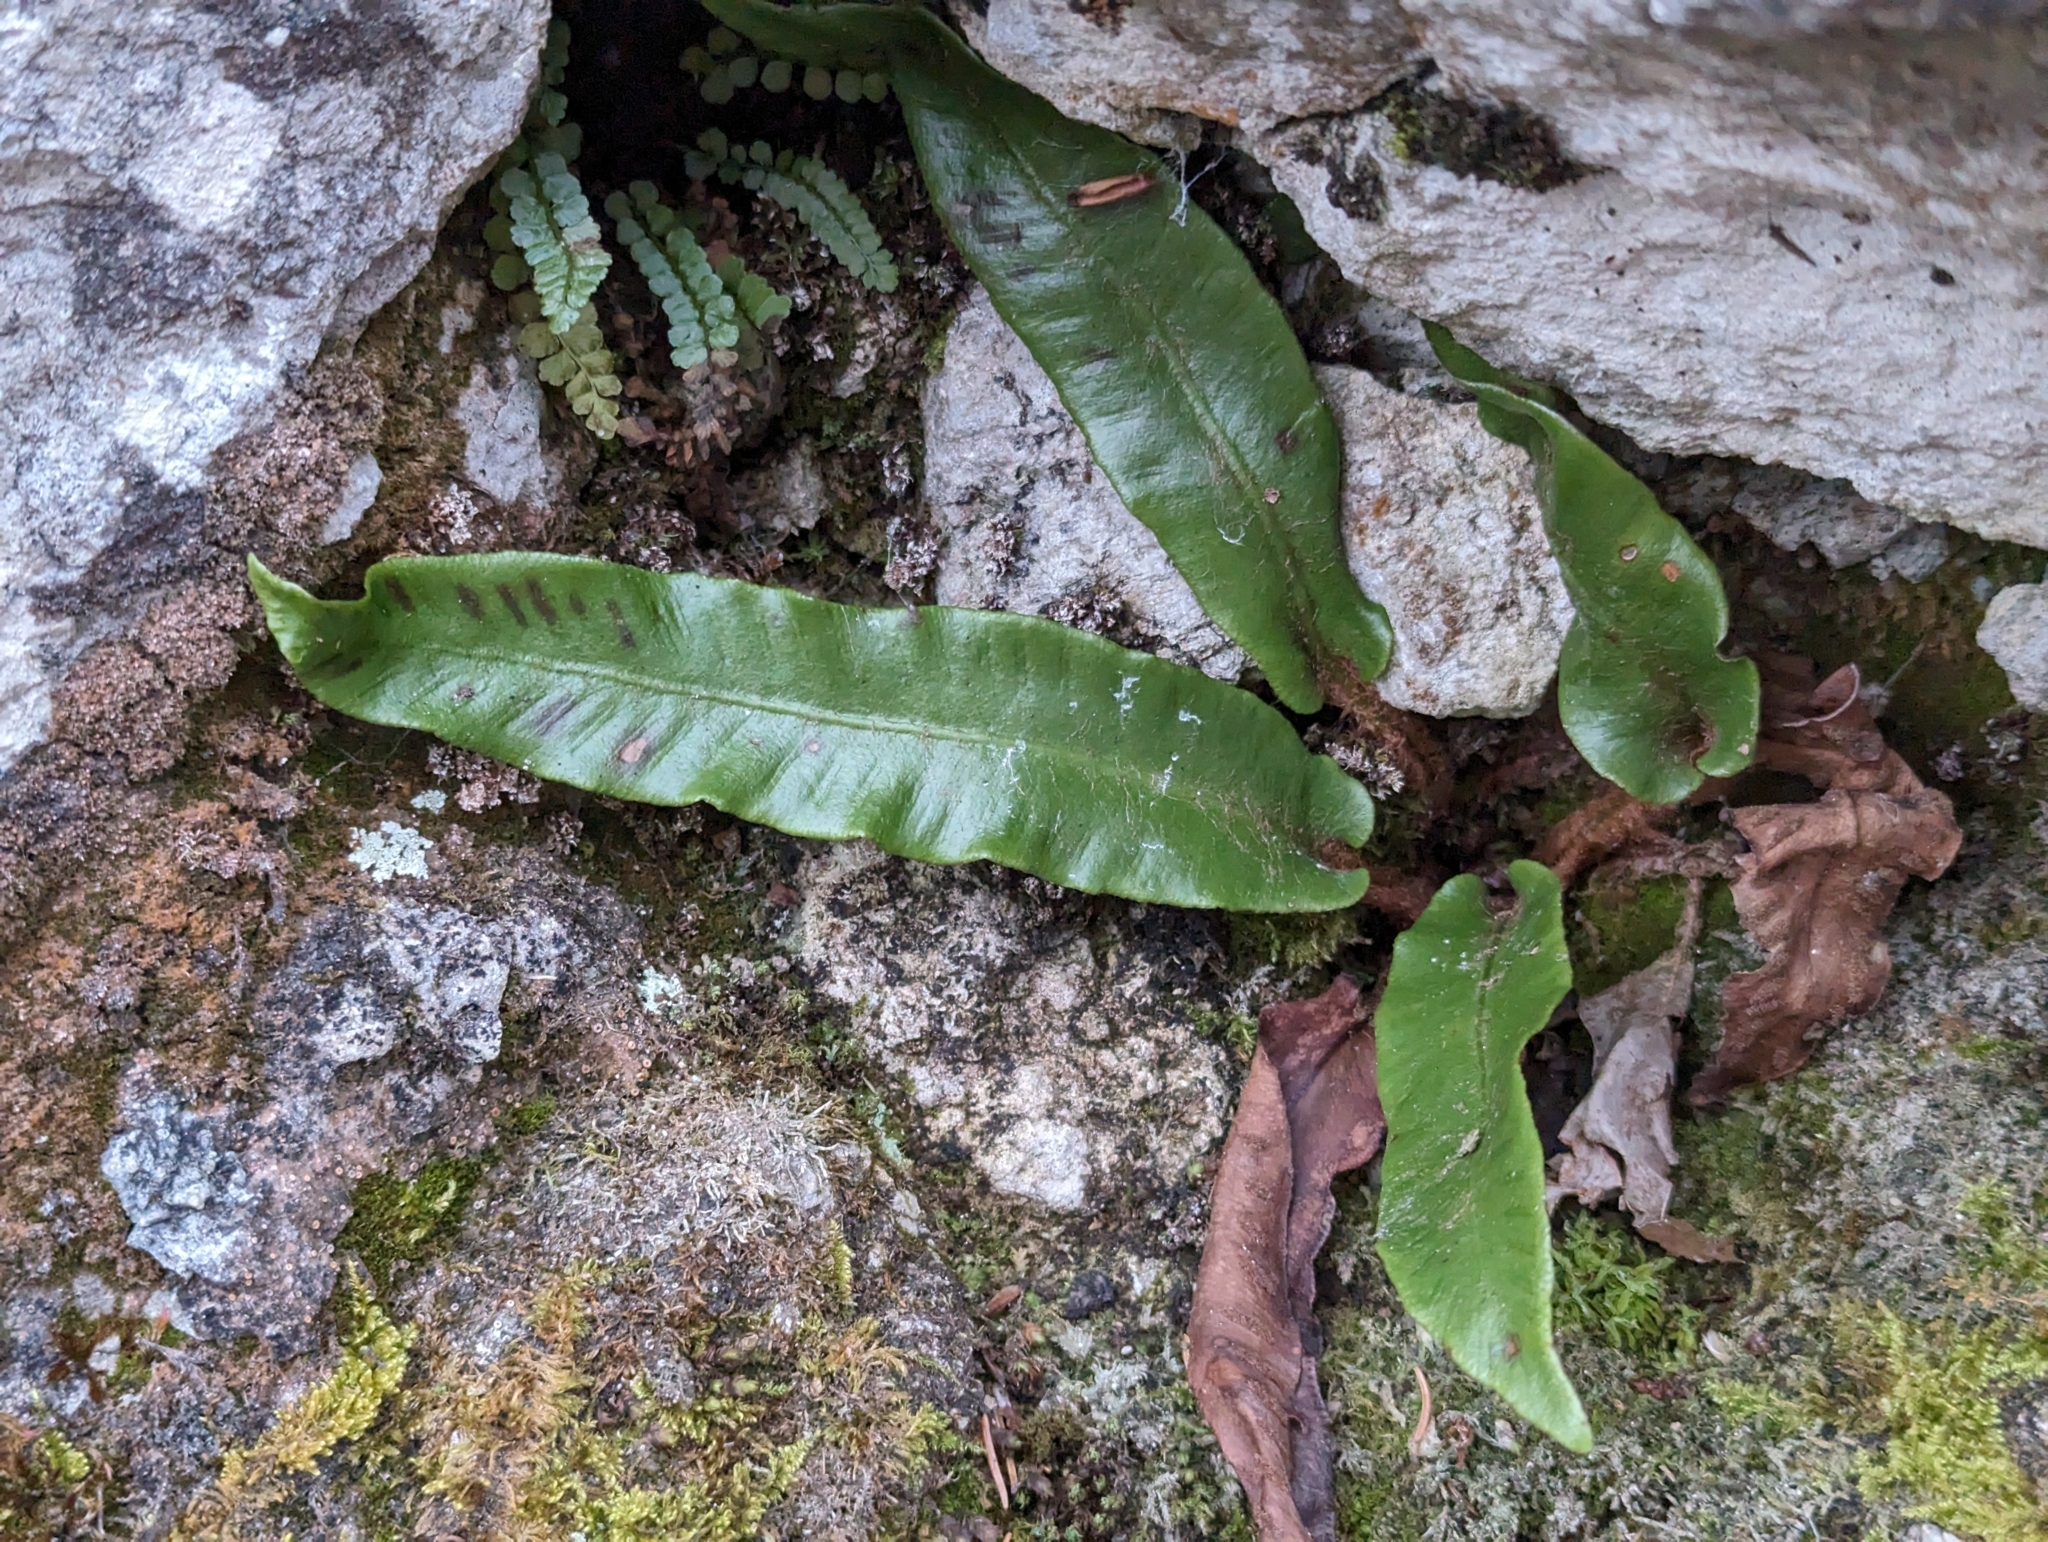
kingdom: Plantae
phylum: Tracheophyta
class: Polypodiopsida
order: Polypodiales
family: Aspleniaceae
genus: Asplenium
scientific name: Asplenium scolopendrium
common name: Hart's-tongue fern
